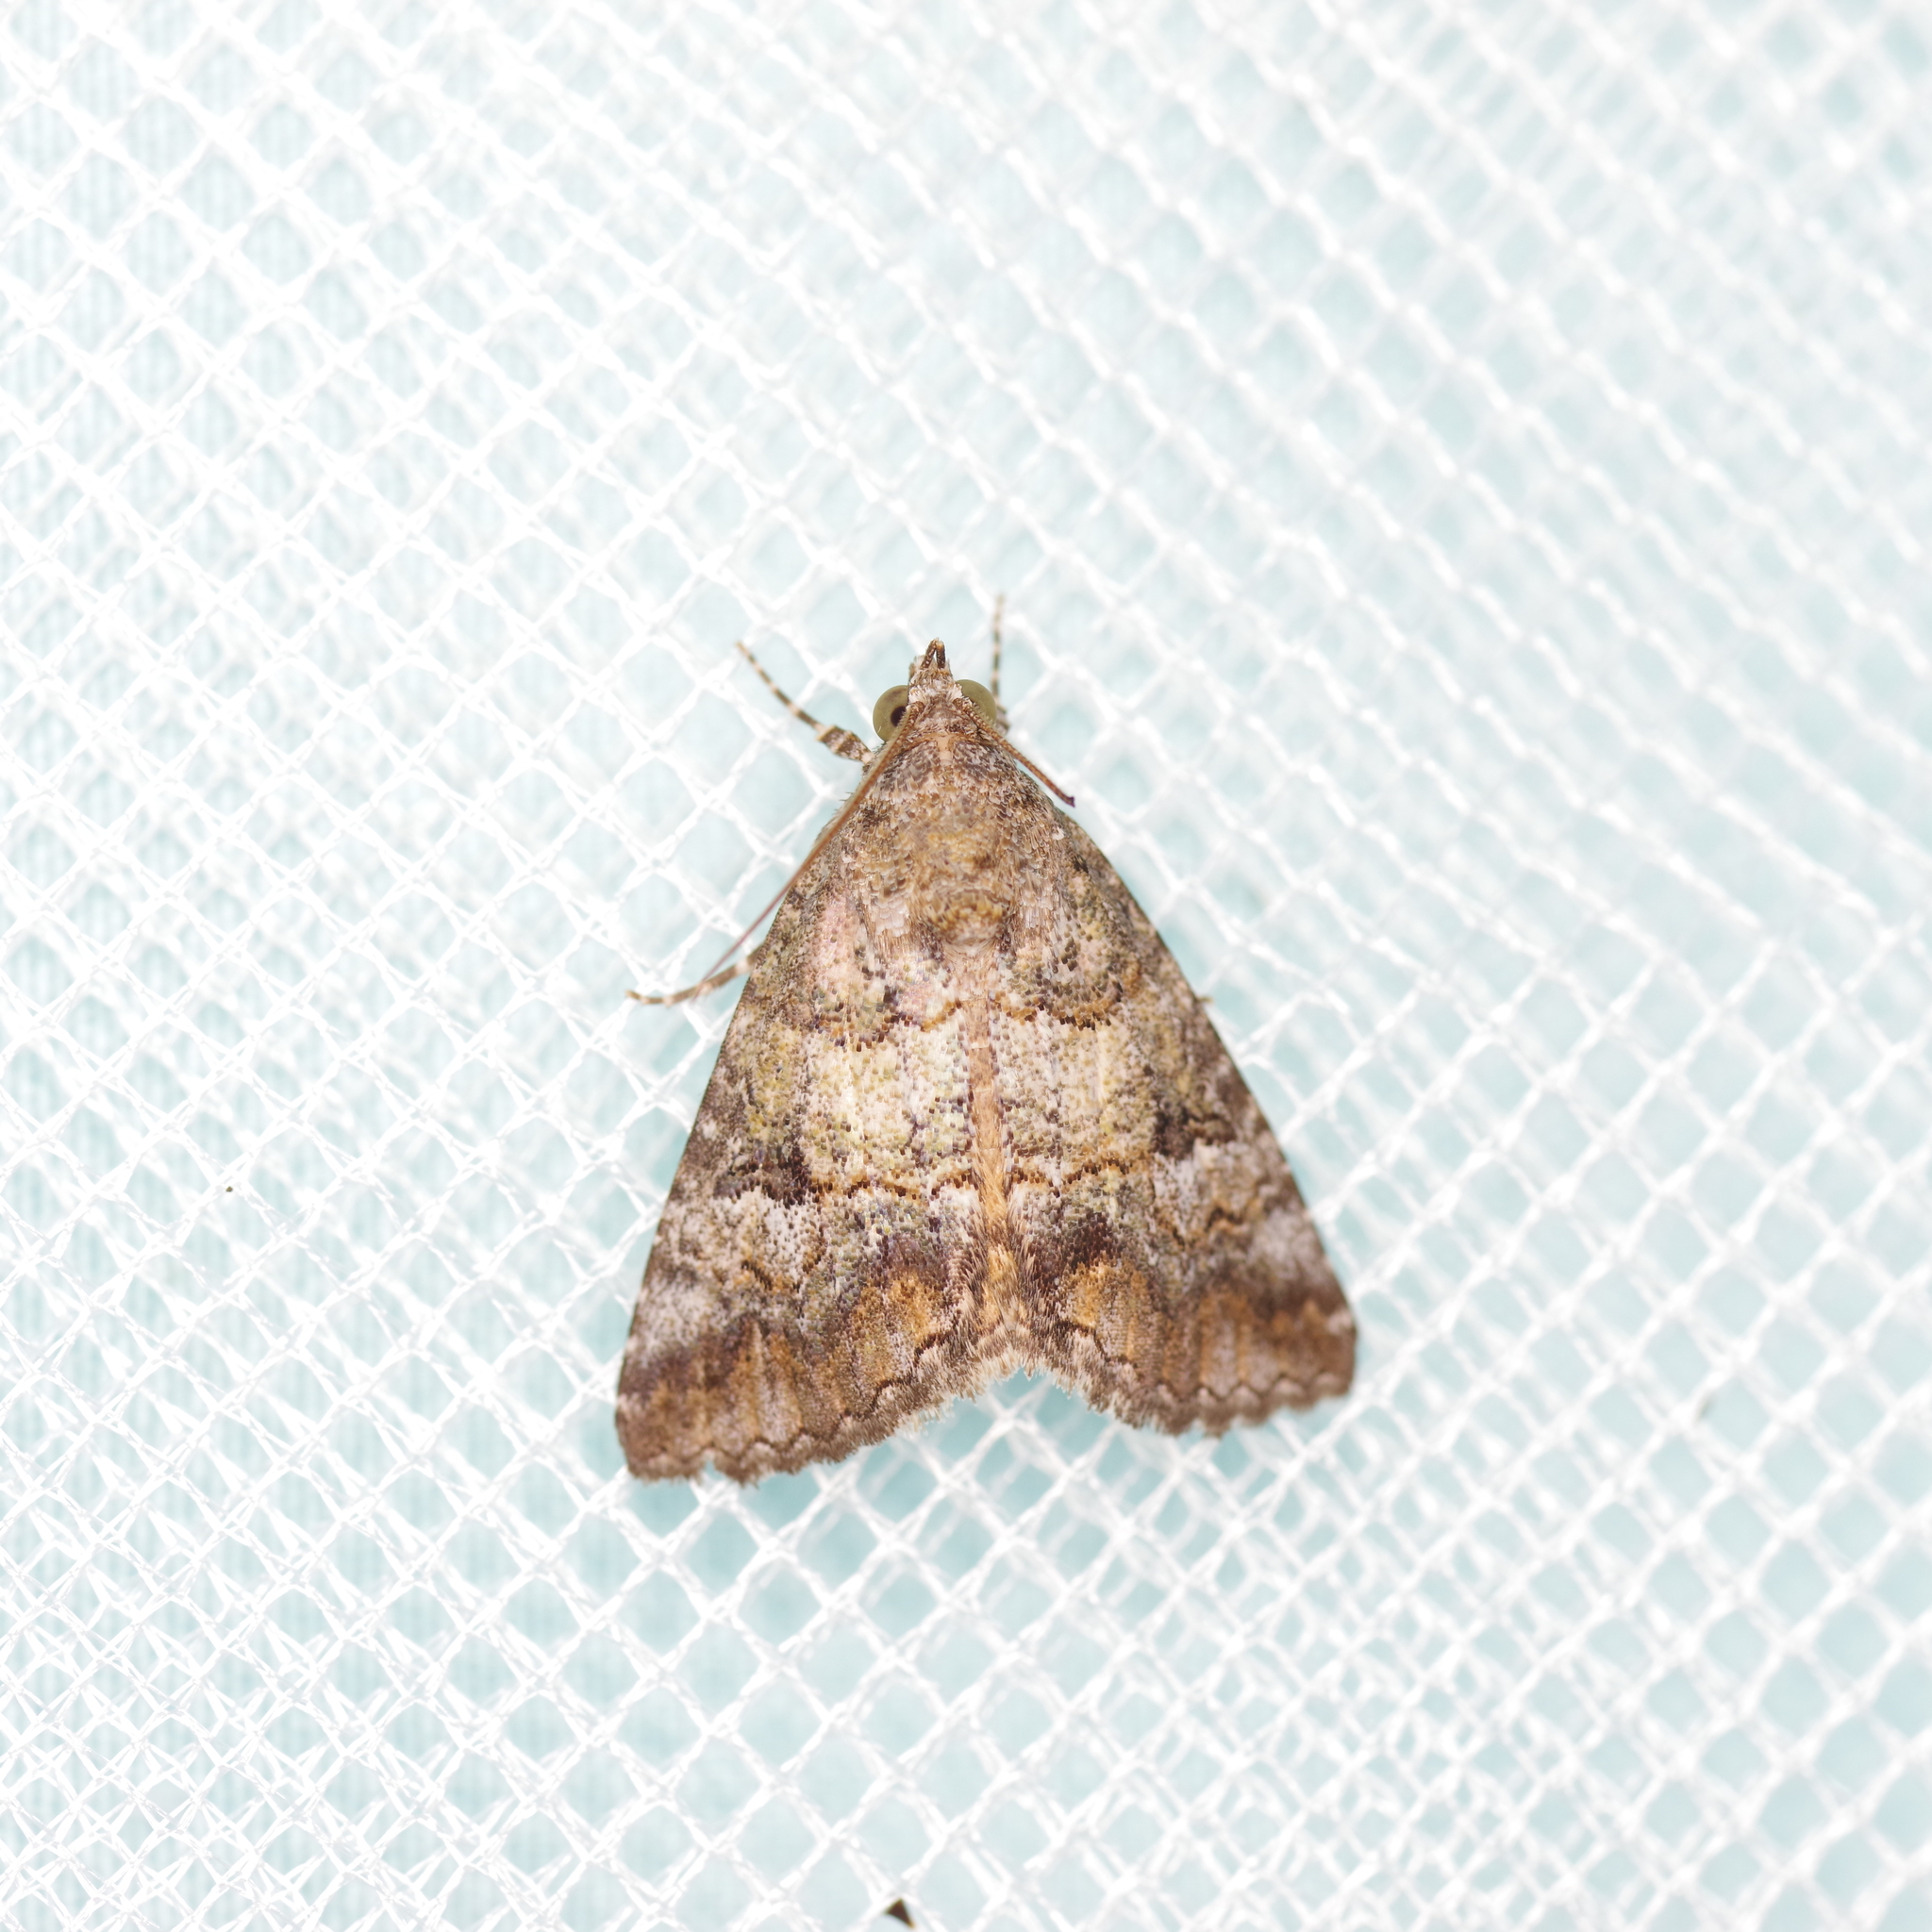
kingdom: Animalia
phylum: Arthropoda
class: Insecta
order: Lepidoptera
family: Erebidae
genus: Eubolina
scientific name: Eubolina impartialis
